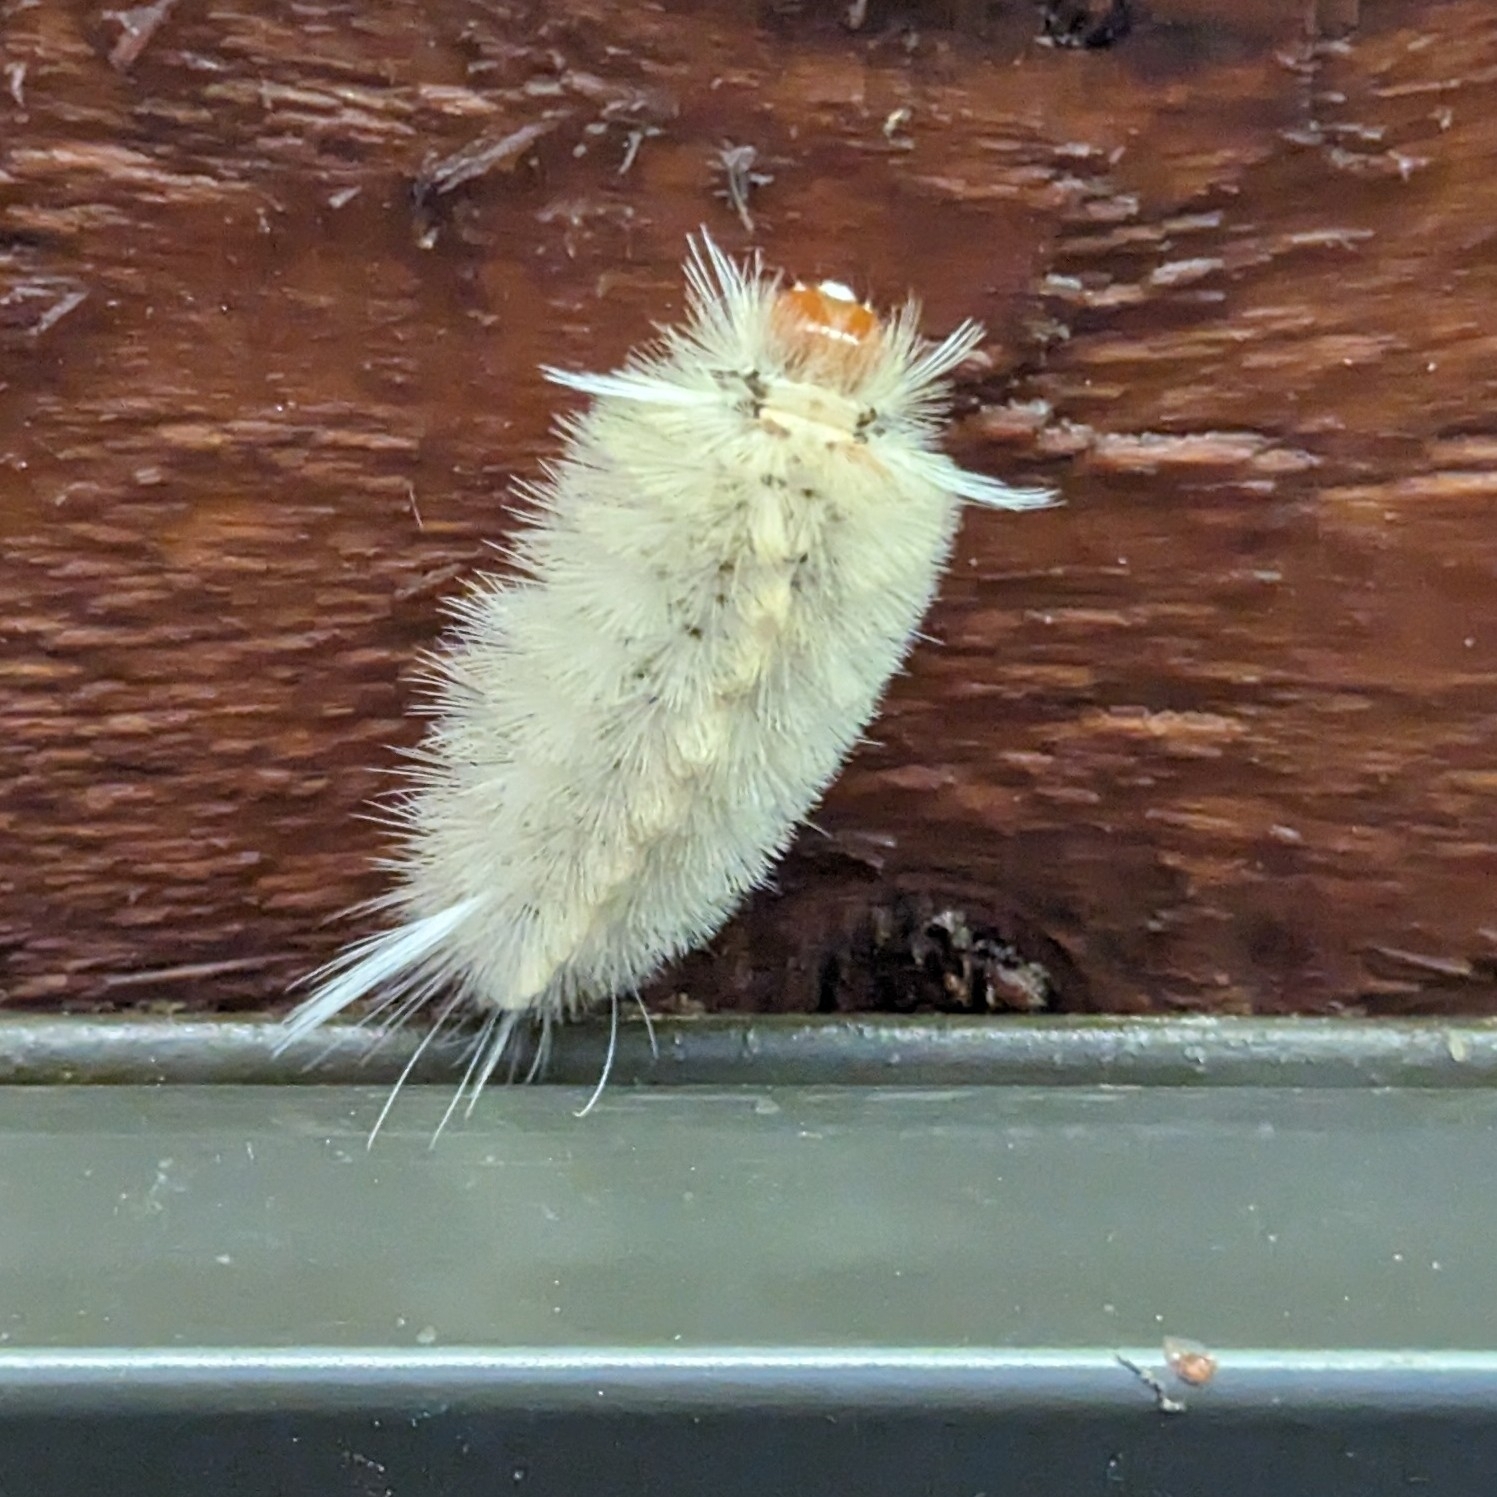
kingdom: Animalia
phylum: Arthropoda
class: Insecta
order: Lepidoptera
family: Erebidae
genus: Halysidota
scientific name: Halysidota harrisii
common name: Sycamore tussock moth
